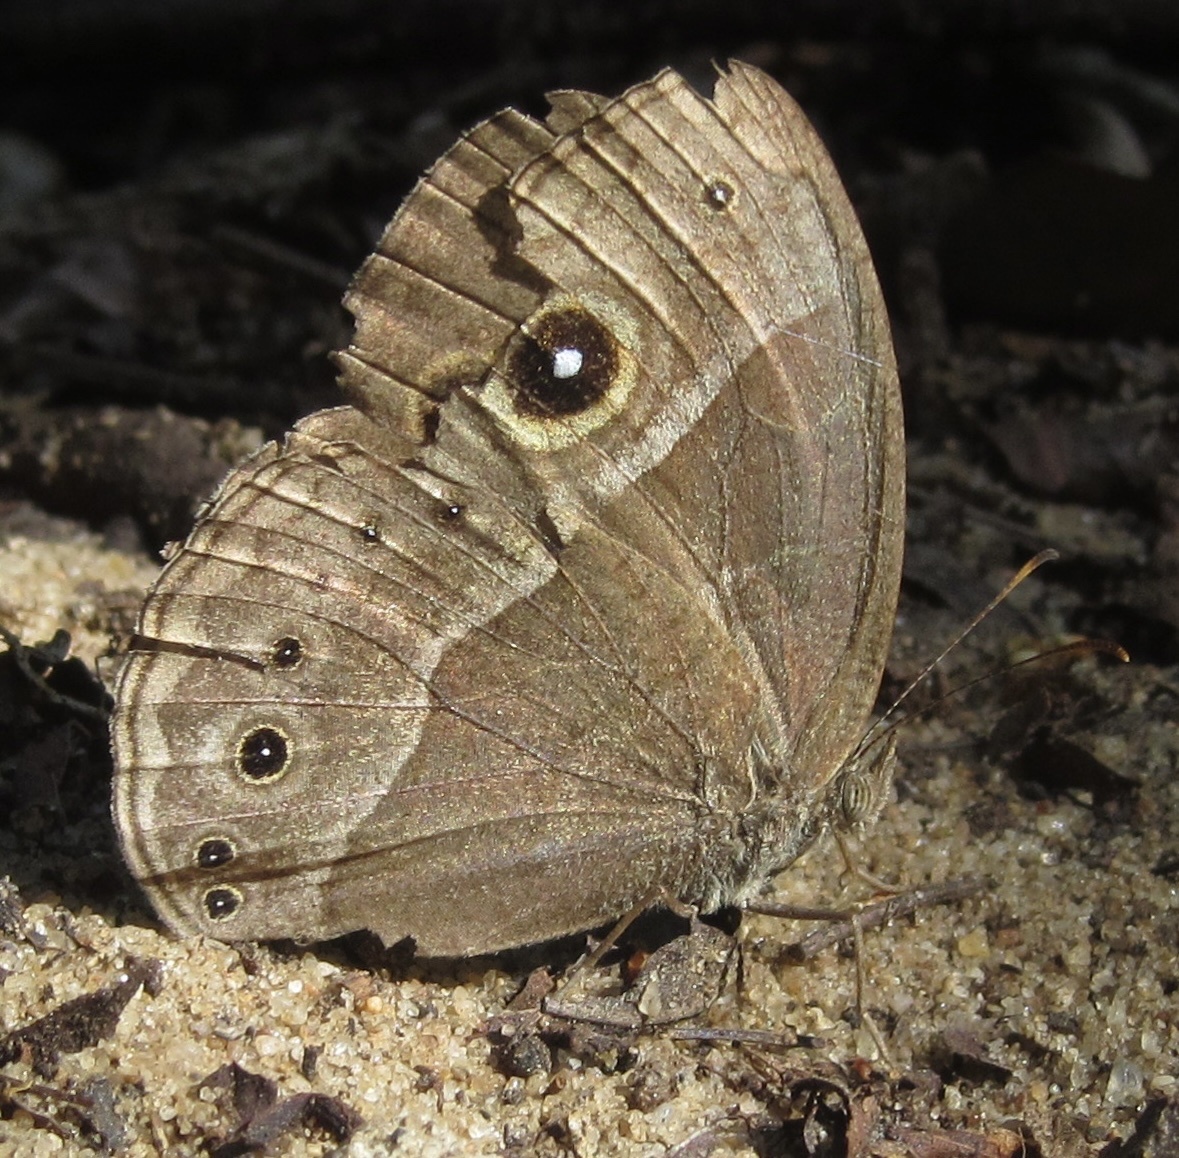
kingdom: Animalia
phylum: Arthropoda
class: Insecta
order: Lepidoptera
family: Nymphalidae
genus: Mycalesis
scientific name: Mycalesis rhacotis
